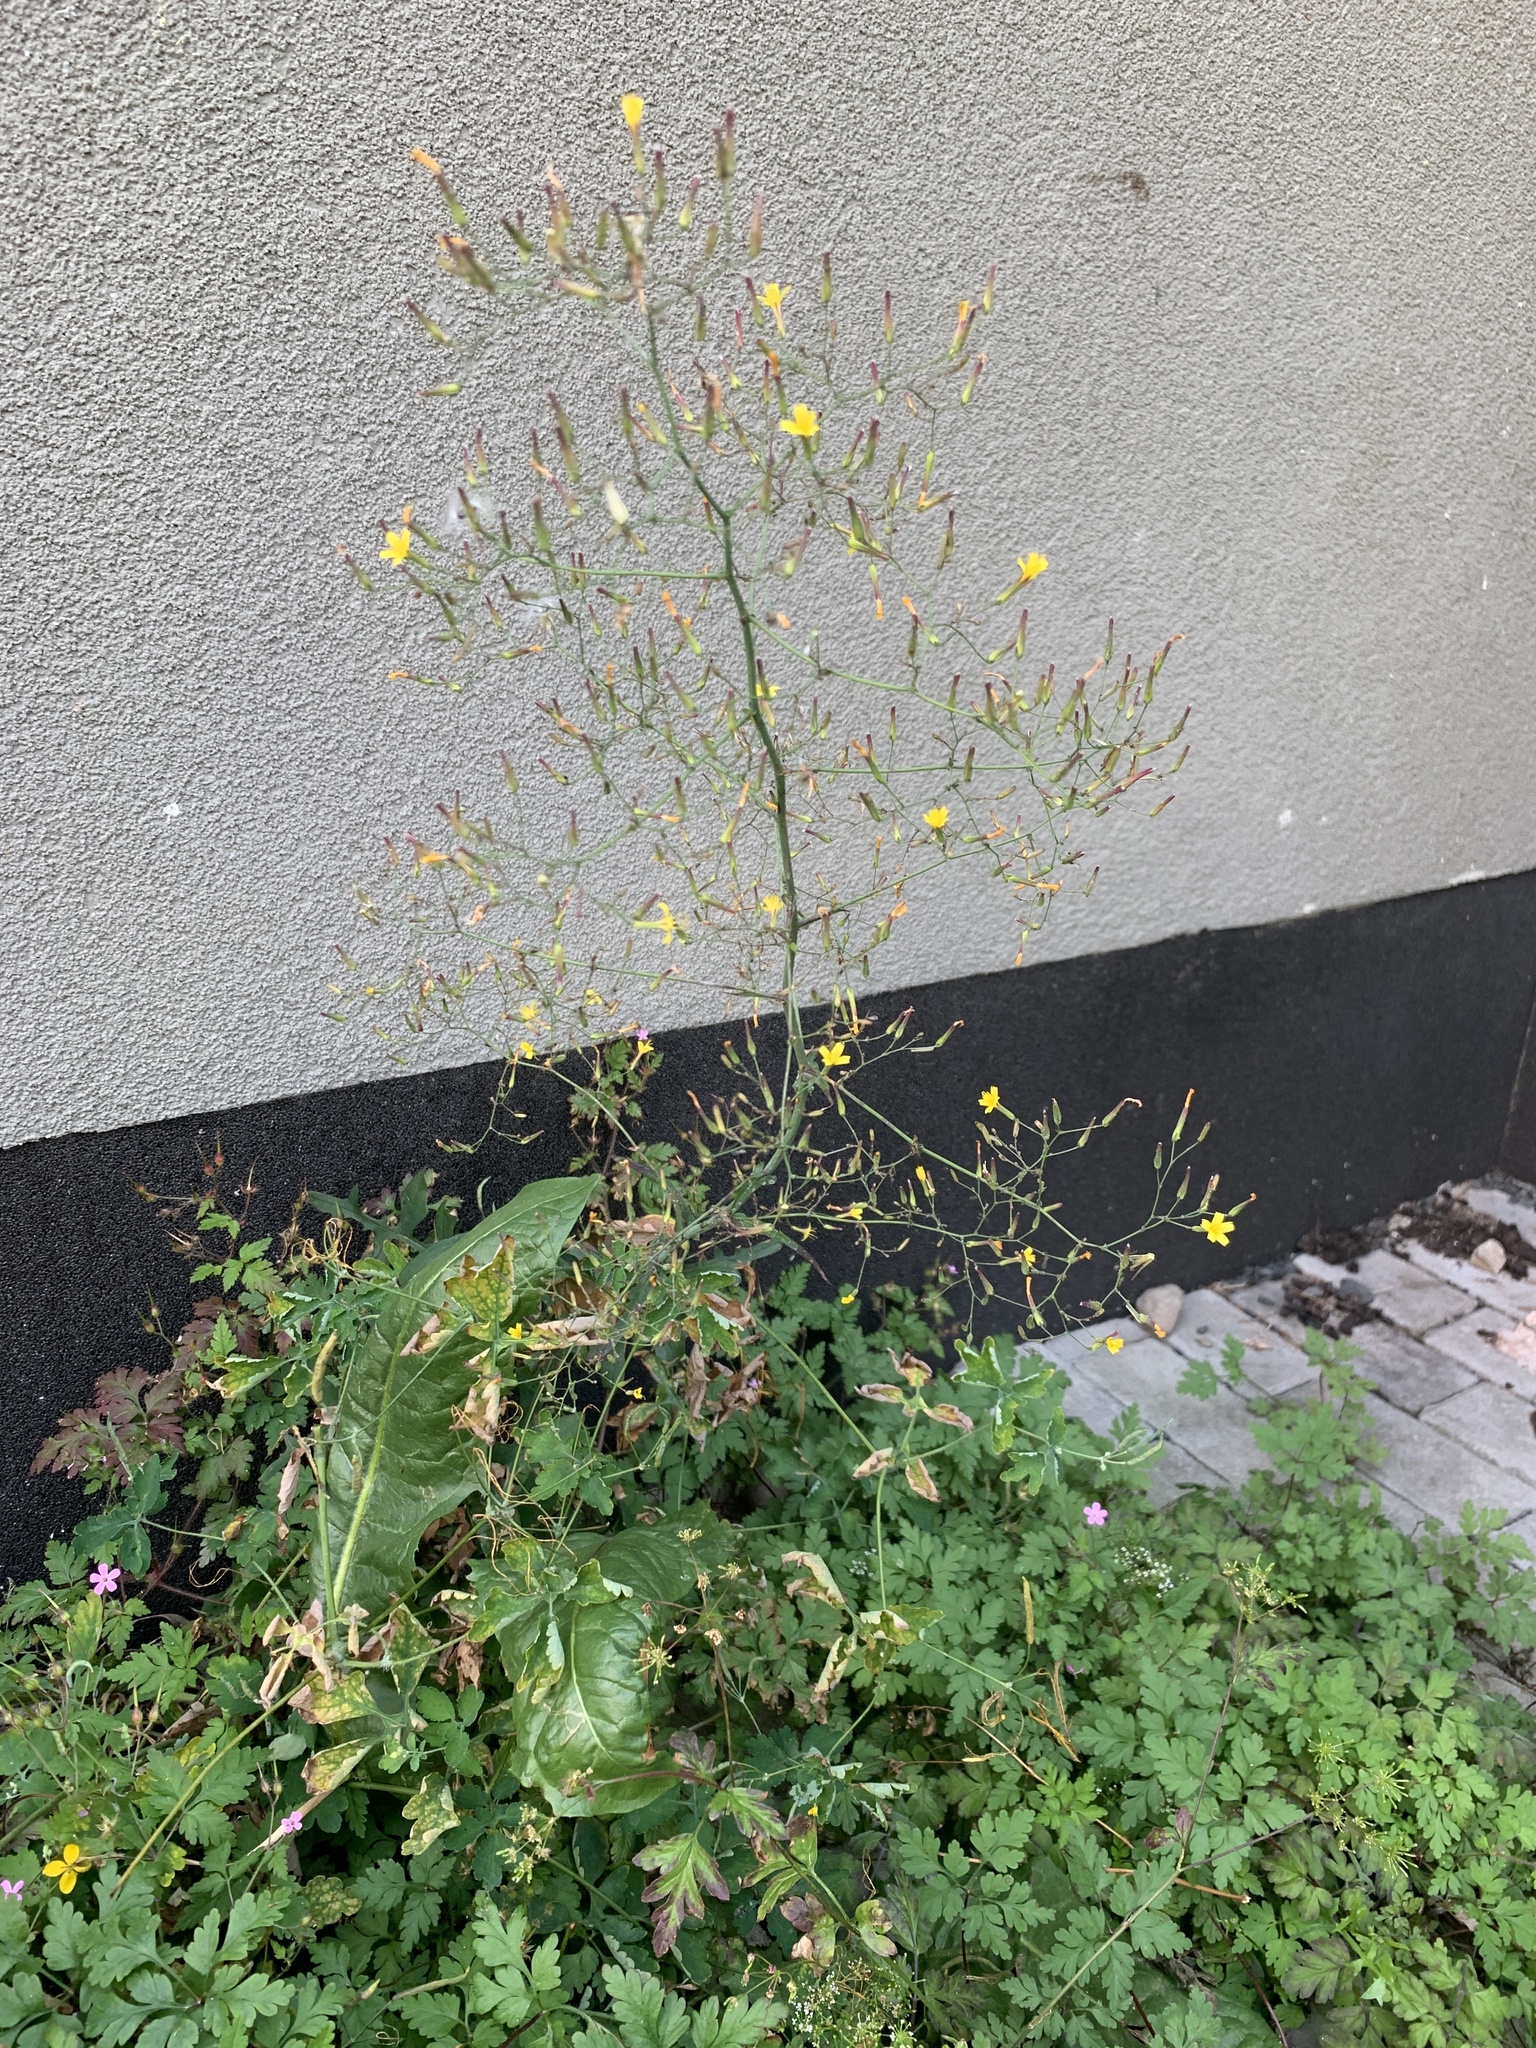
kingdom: Plantae
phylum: Tracheophyta
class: Magnoliopsida
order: Asterales
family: Asteraceae
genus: Mycelis
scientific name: Mycelis muralis
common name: Wall lettuce
